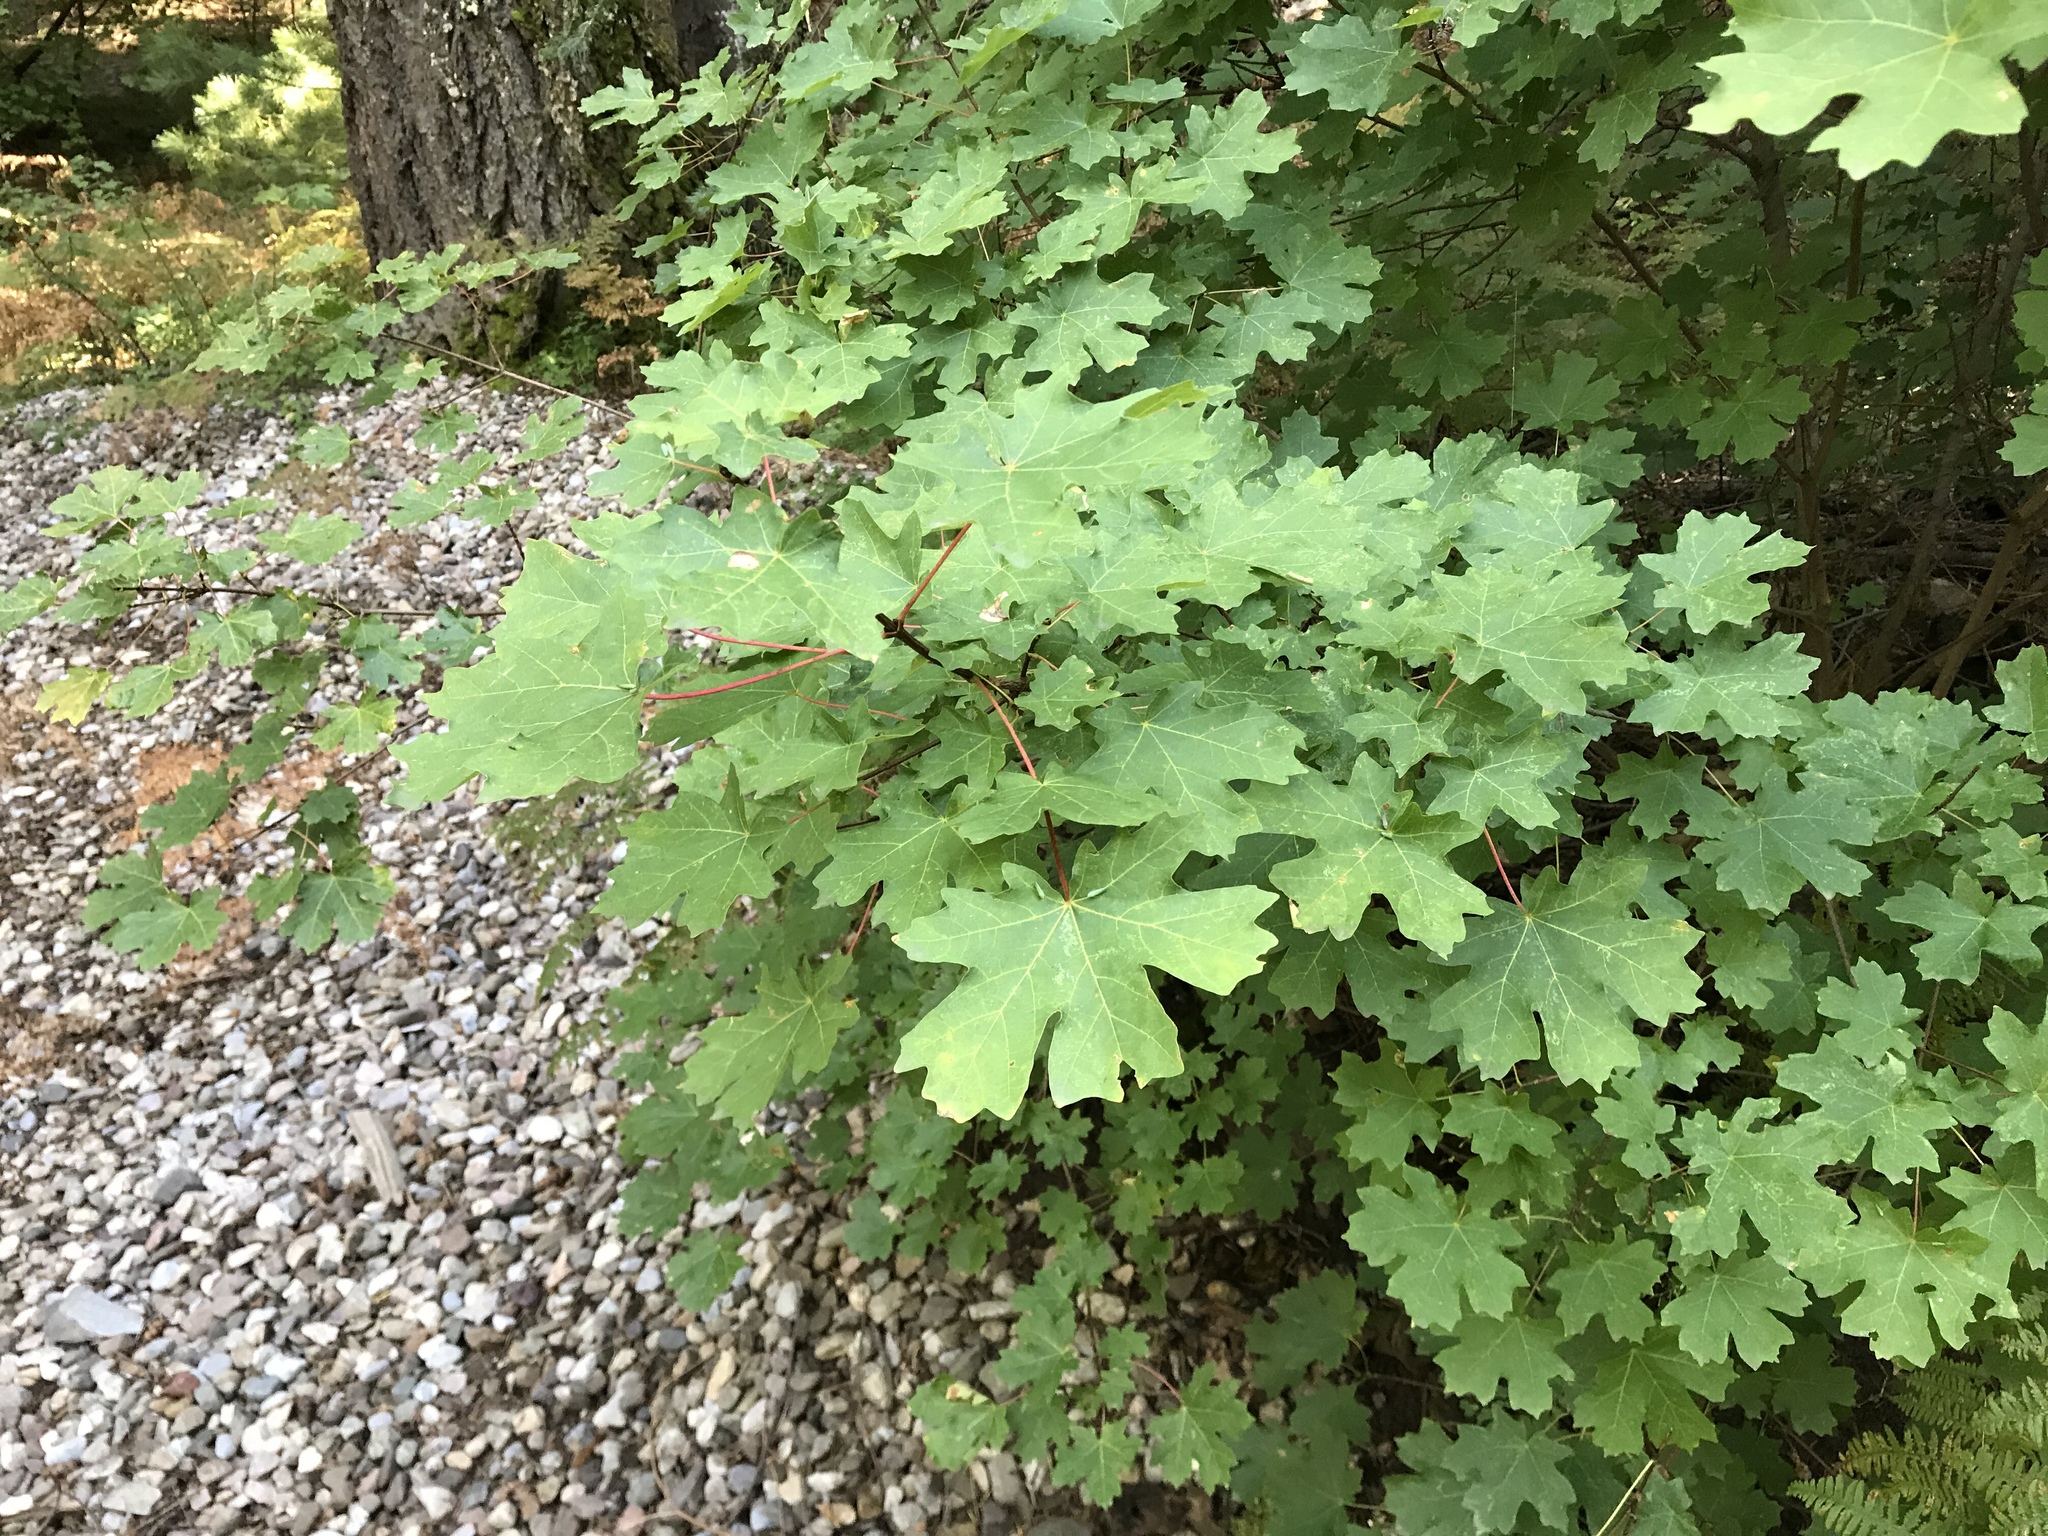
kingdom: Plantae
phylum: Tracheophyta
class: Magnoliopsida
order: Sapindales
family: Sapindaceae
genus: Acer
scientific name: Acer grandidentatum
